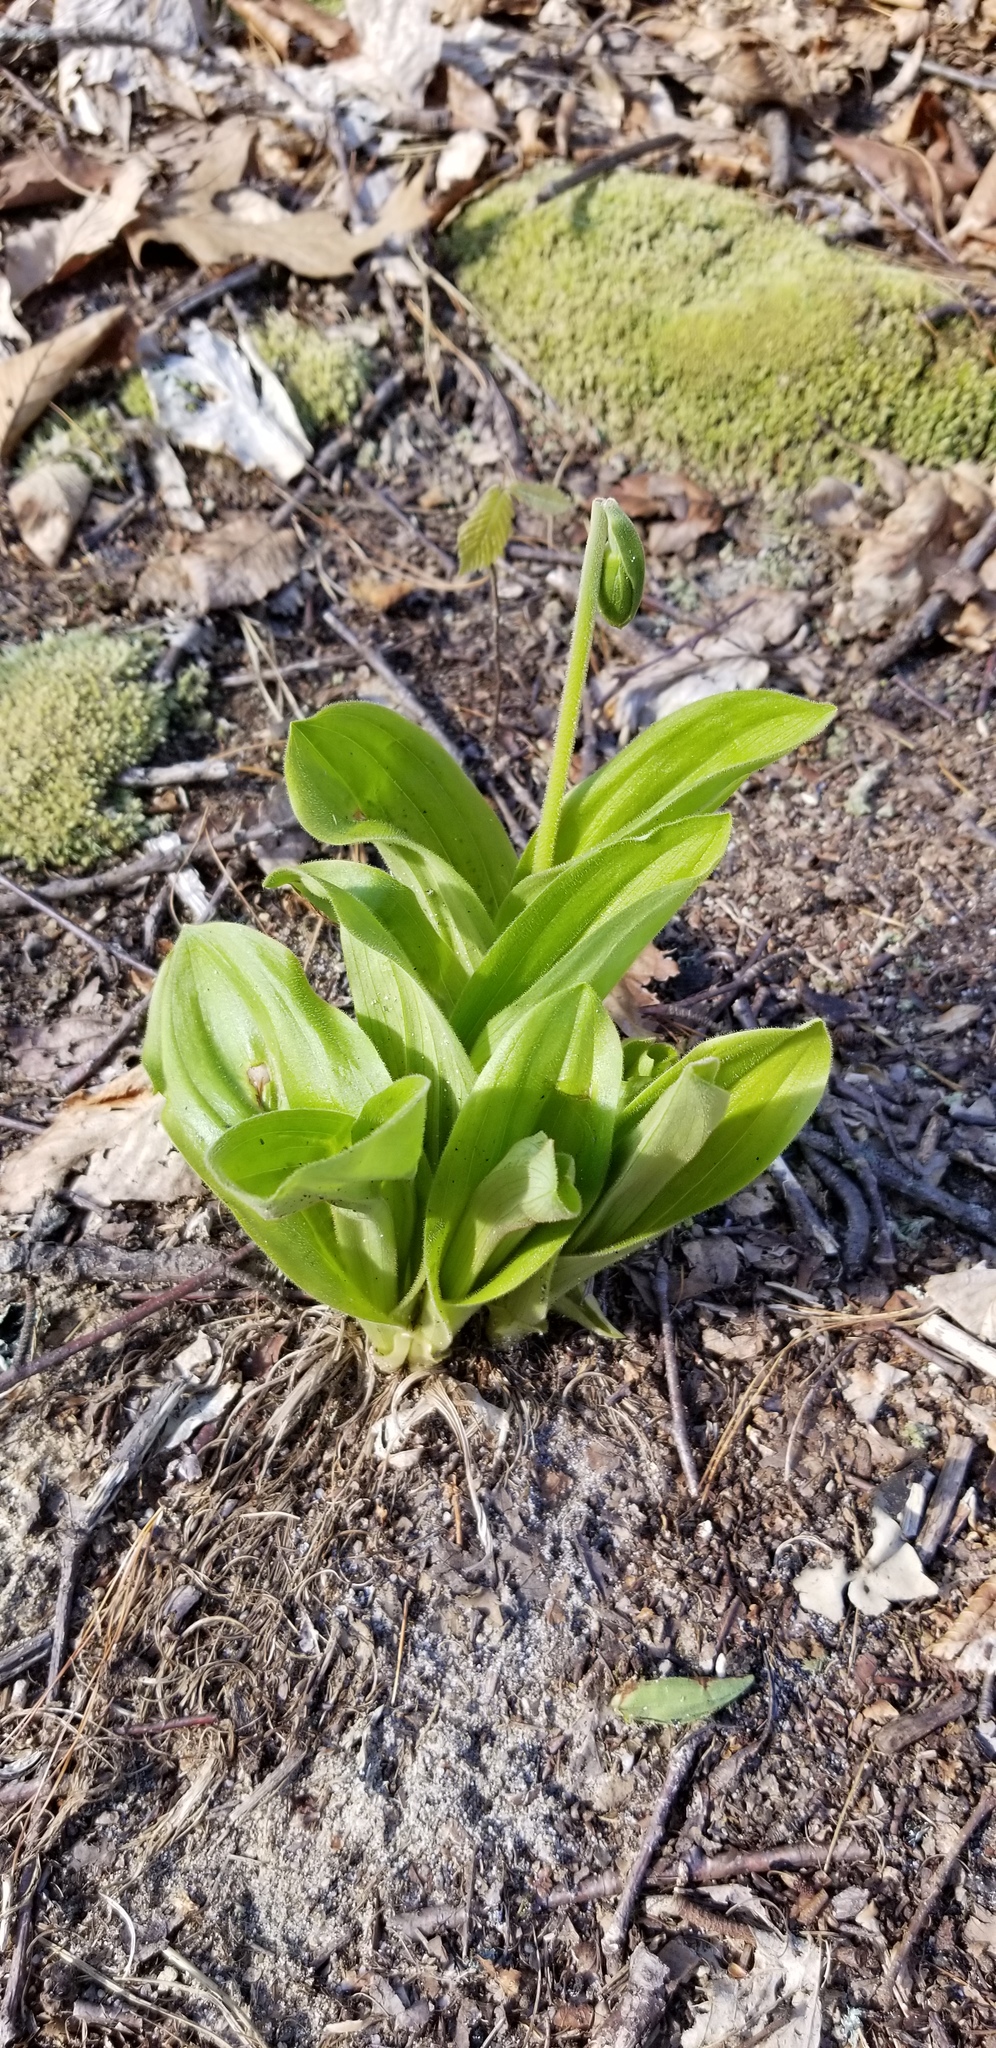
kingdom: Plantae
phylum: Tracheophyta
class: Liliopsida
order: Asparagales
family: Orchidaceae
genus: Cypripedium
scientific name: Cypripedium acaule
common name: Pink lady's-slipper
